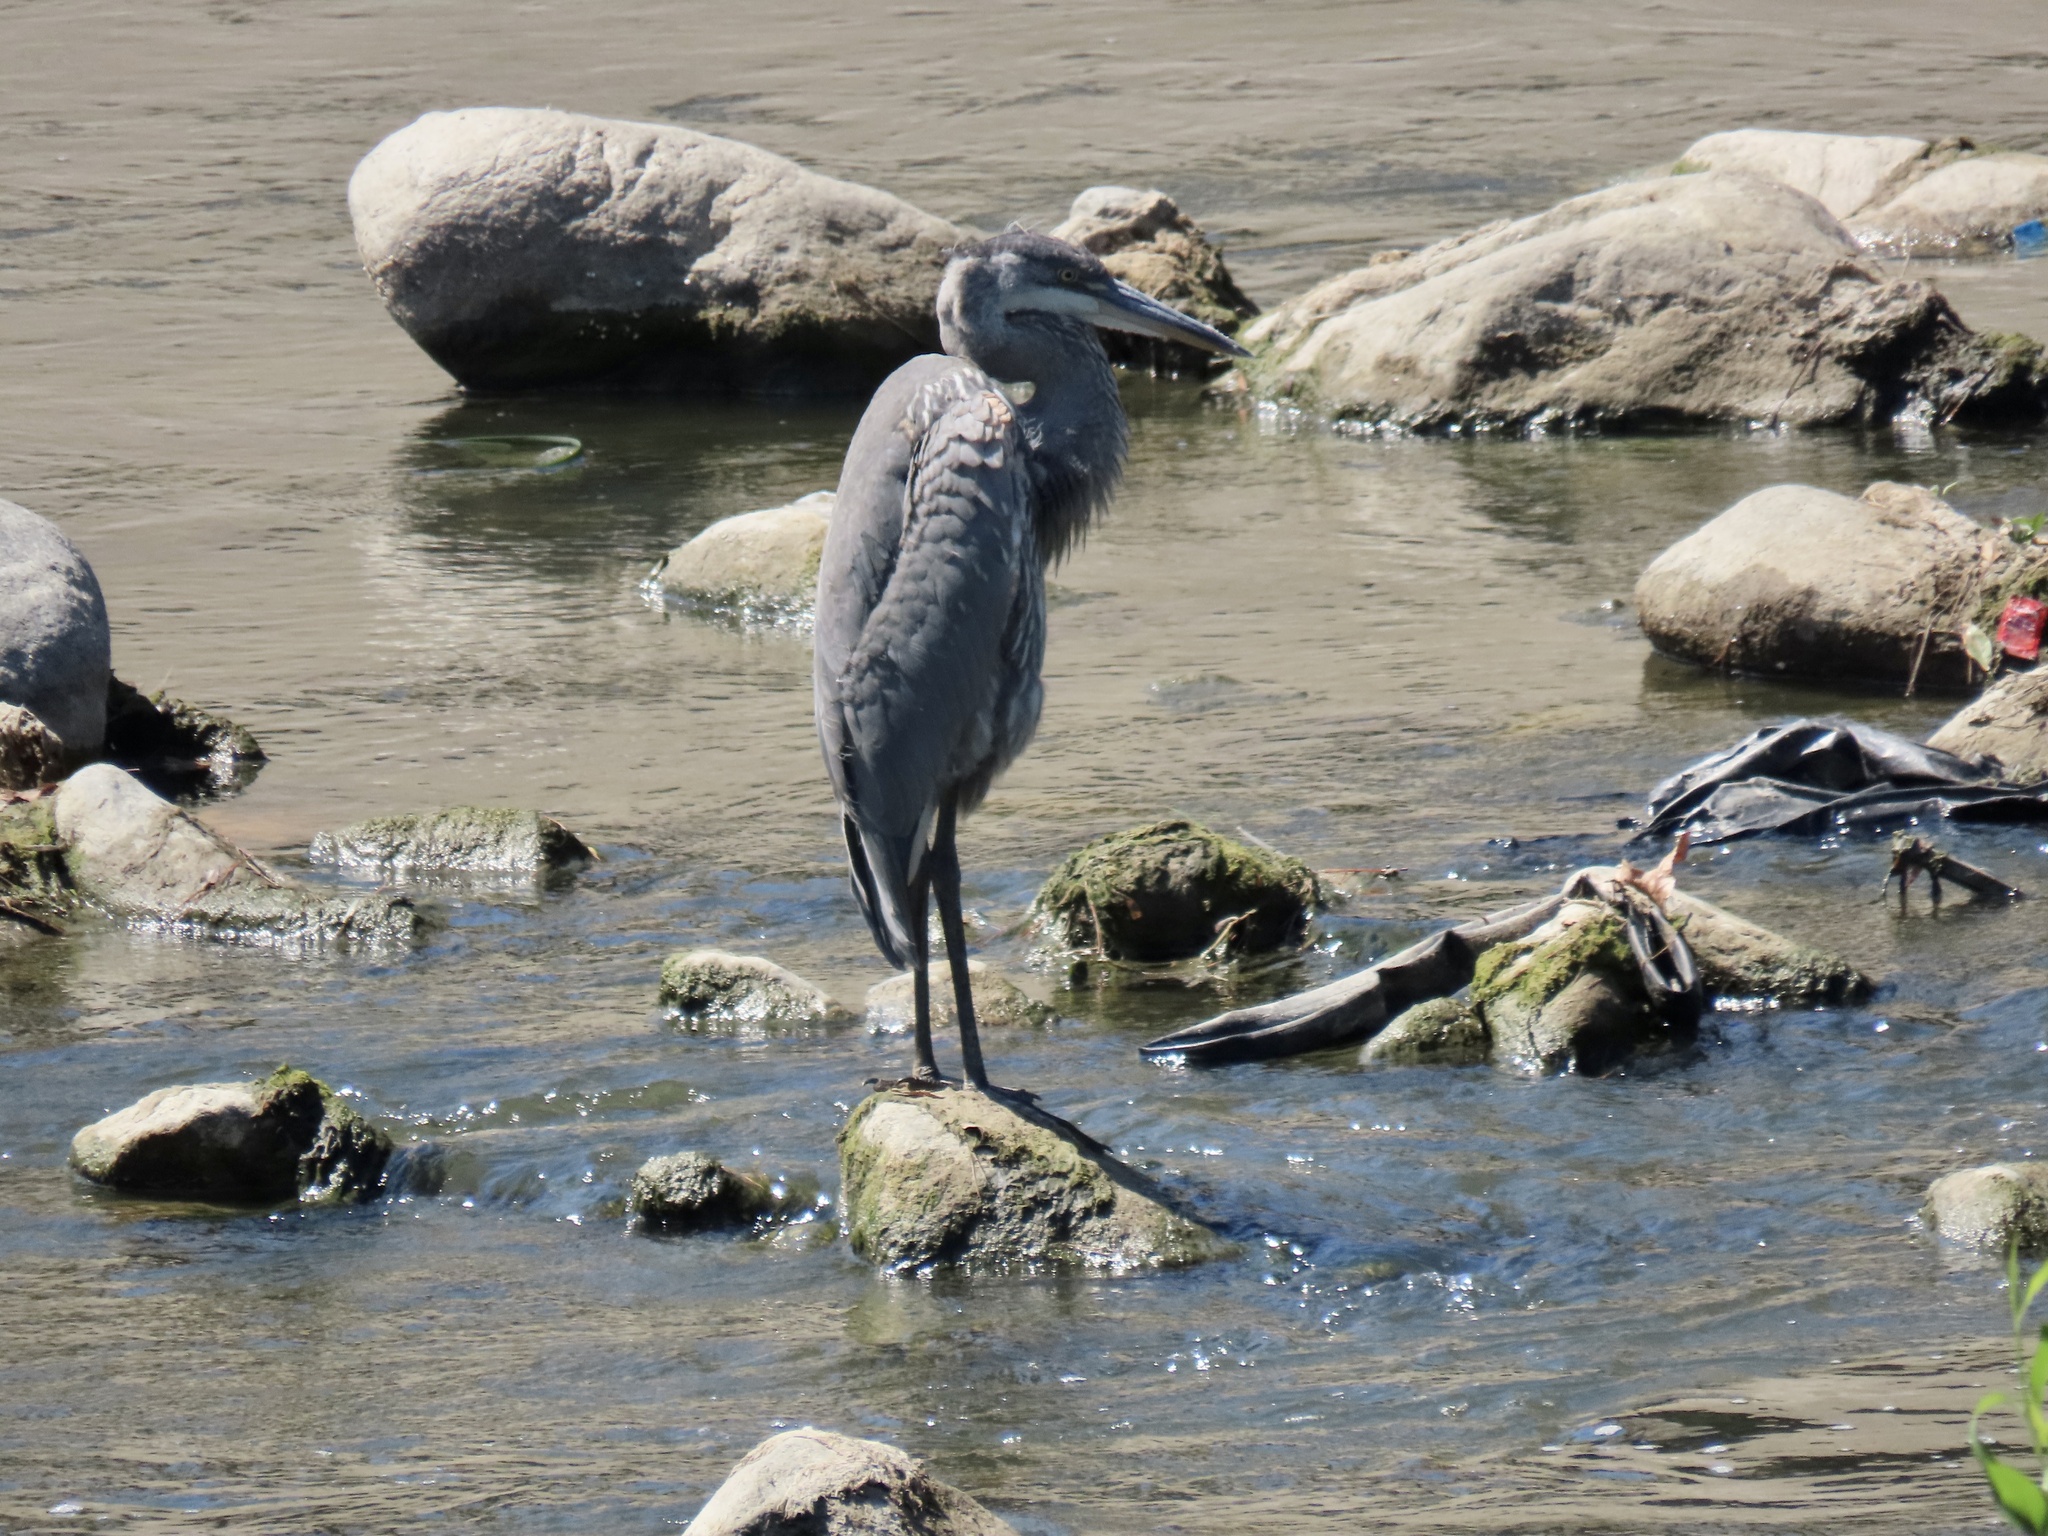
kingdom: Animalia
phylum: Chordata
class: Aves
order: Pelecaniformes
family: Ardeidae
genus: Ardea
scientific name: Ardea herodias
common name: Great blue heron
